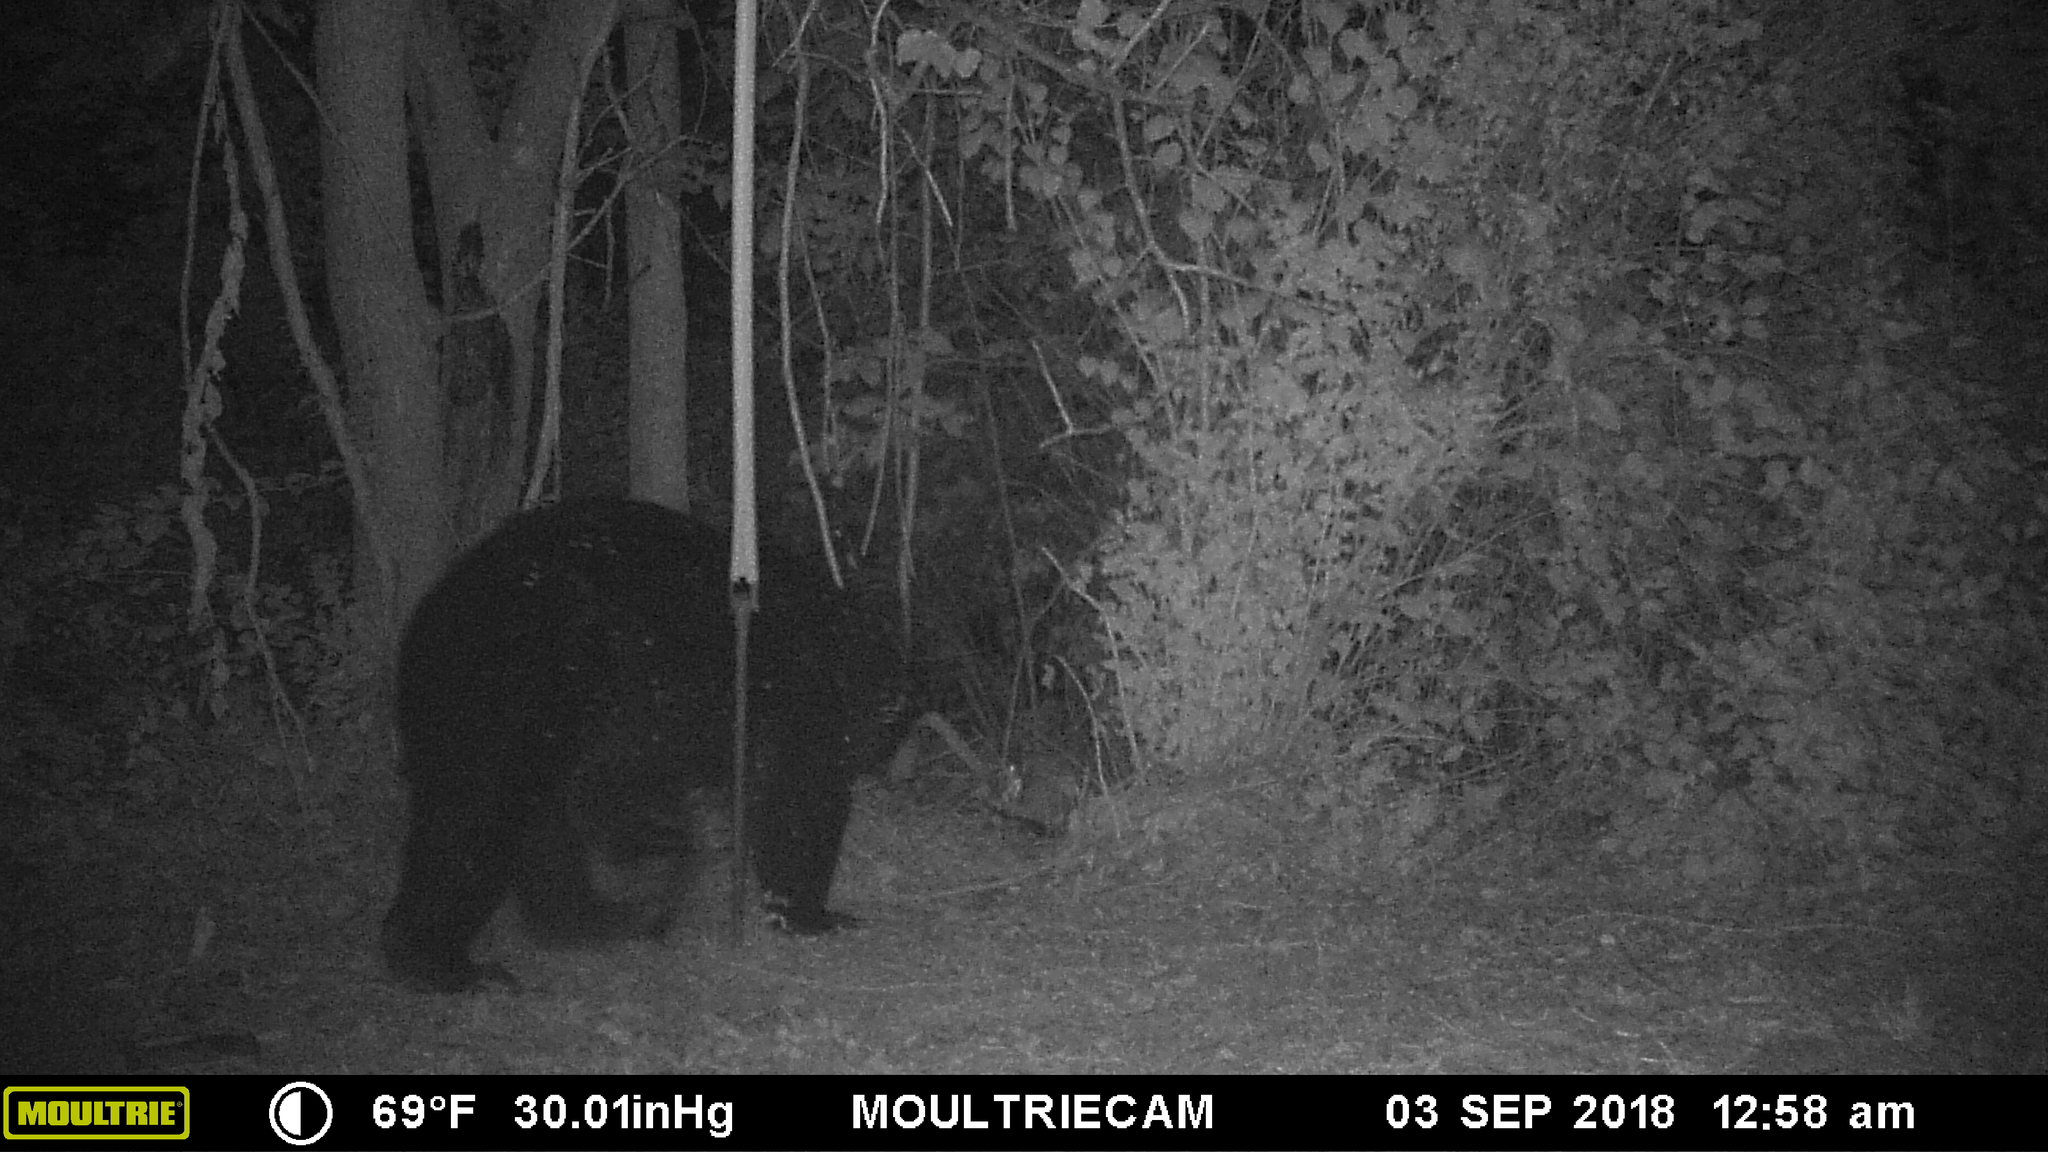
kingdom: Animalia
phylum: Chordata
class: Mammalia
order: Carnivora
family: Ursidae
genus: Ursus
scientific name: Ursus americanus
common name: American black bear
